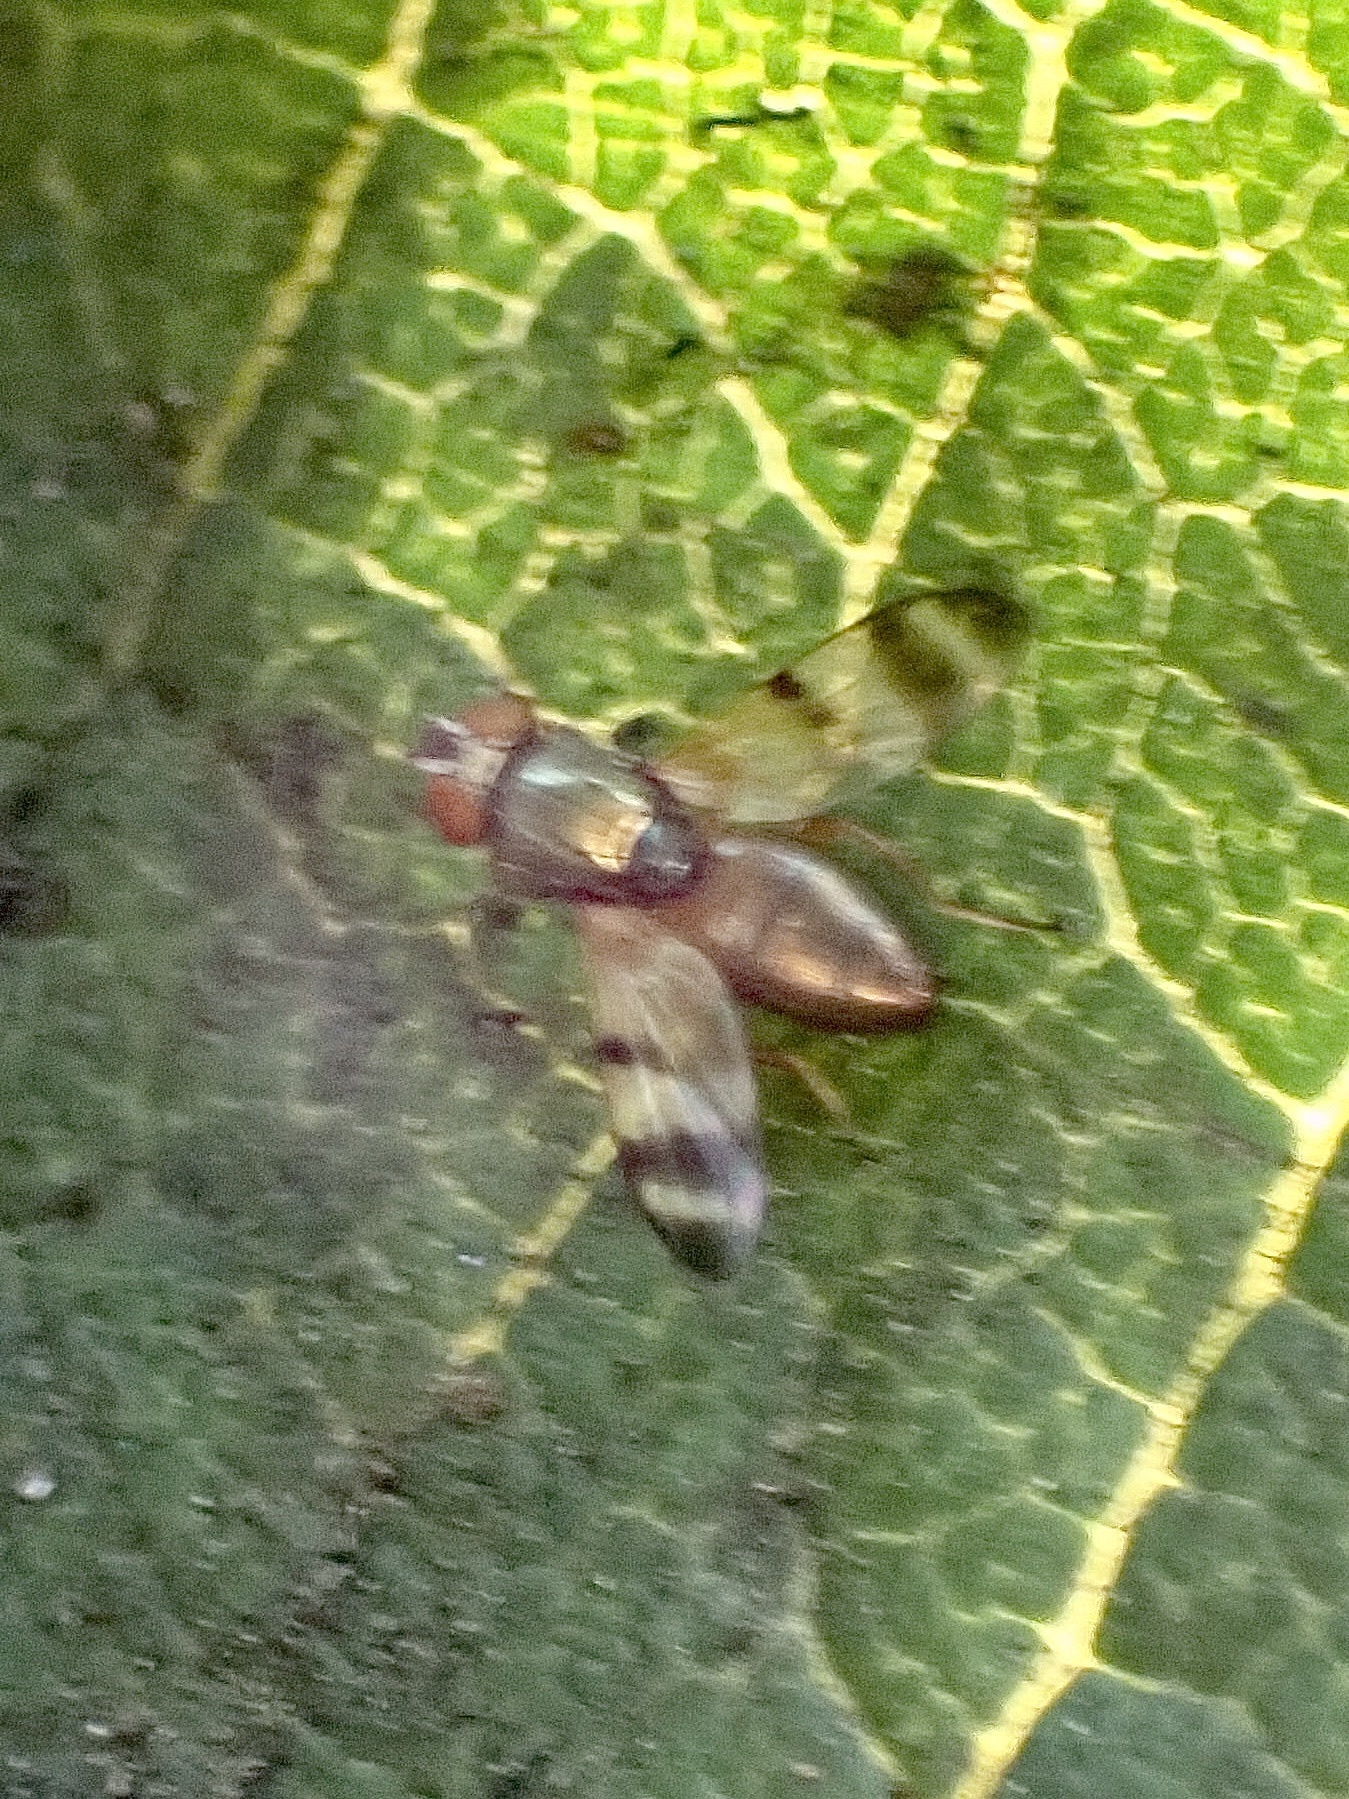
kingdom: Animalia
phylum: Arthropoda
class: Insecta
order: Diptera
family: Ulidiidae
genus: Chaetopsis
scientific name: Chaetopsis
